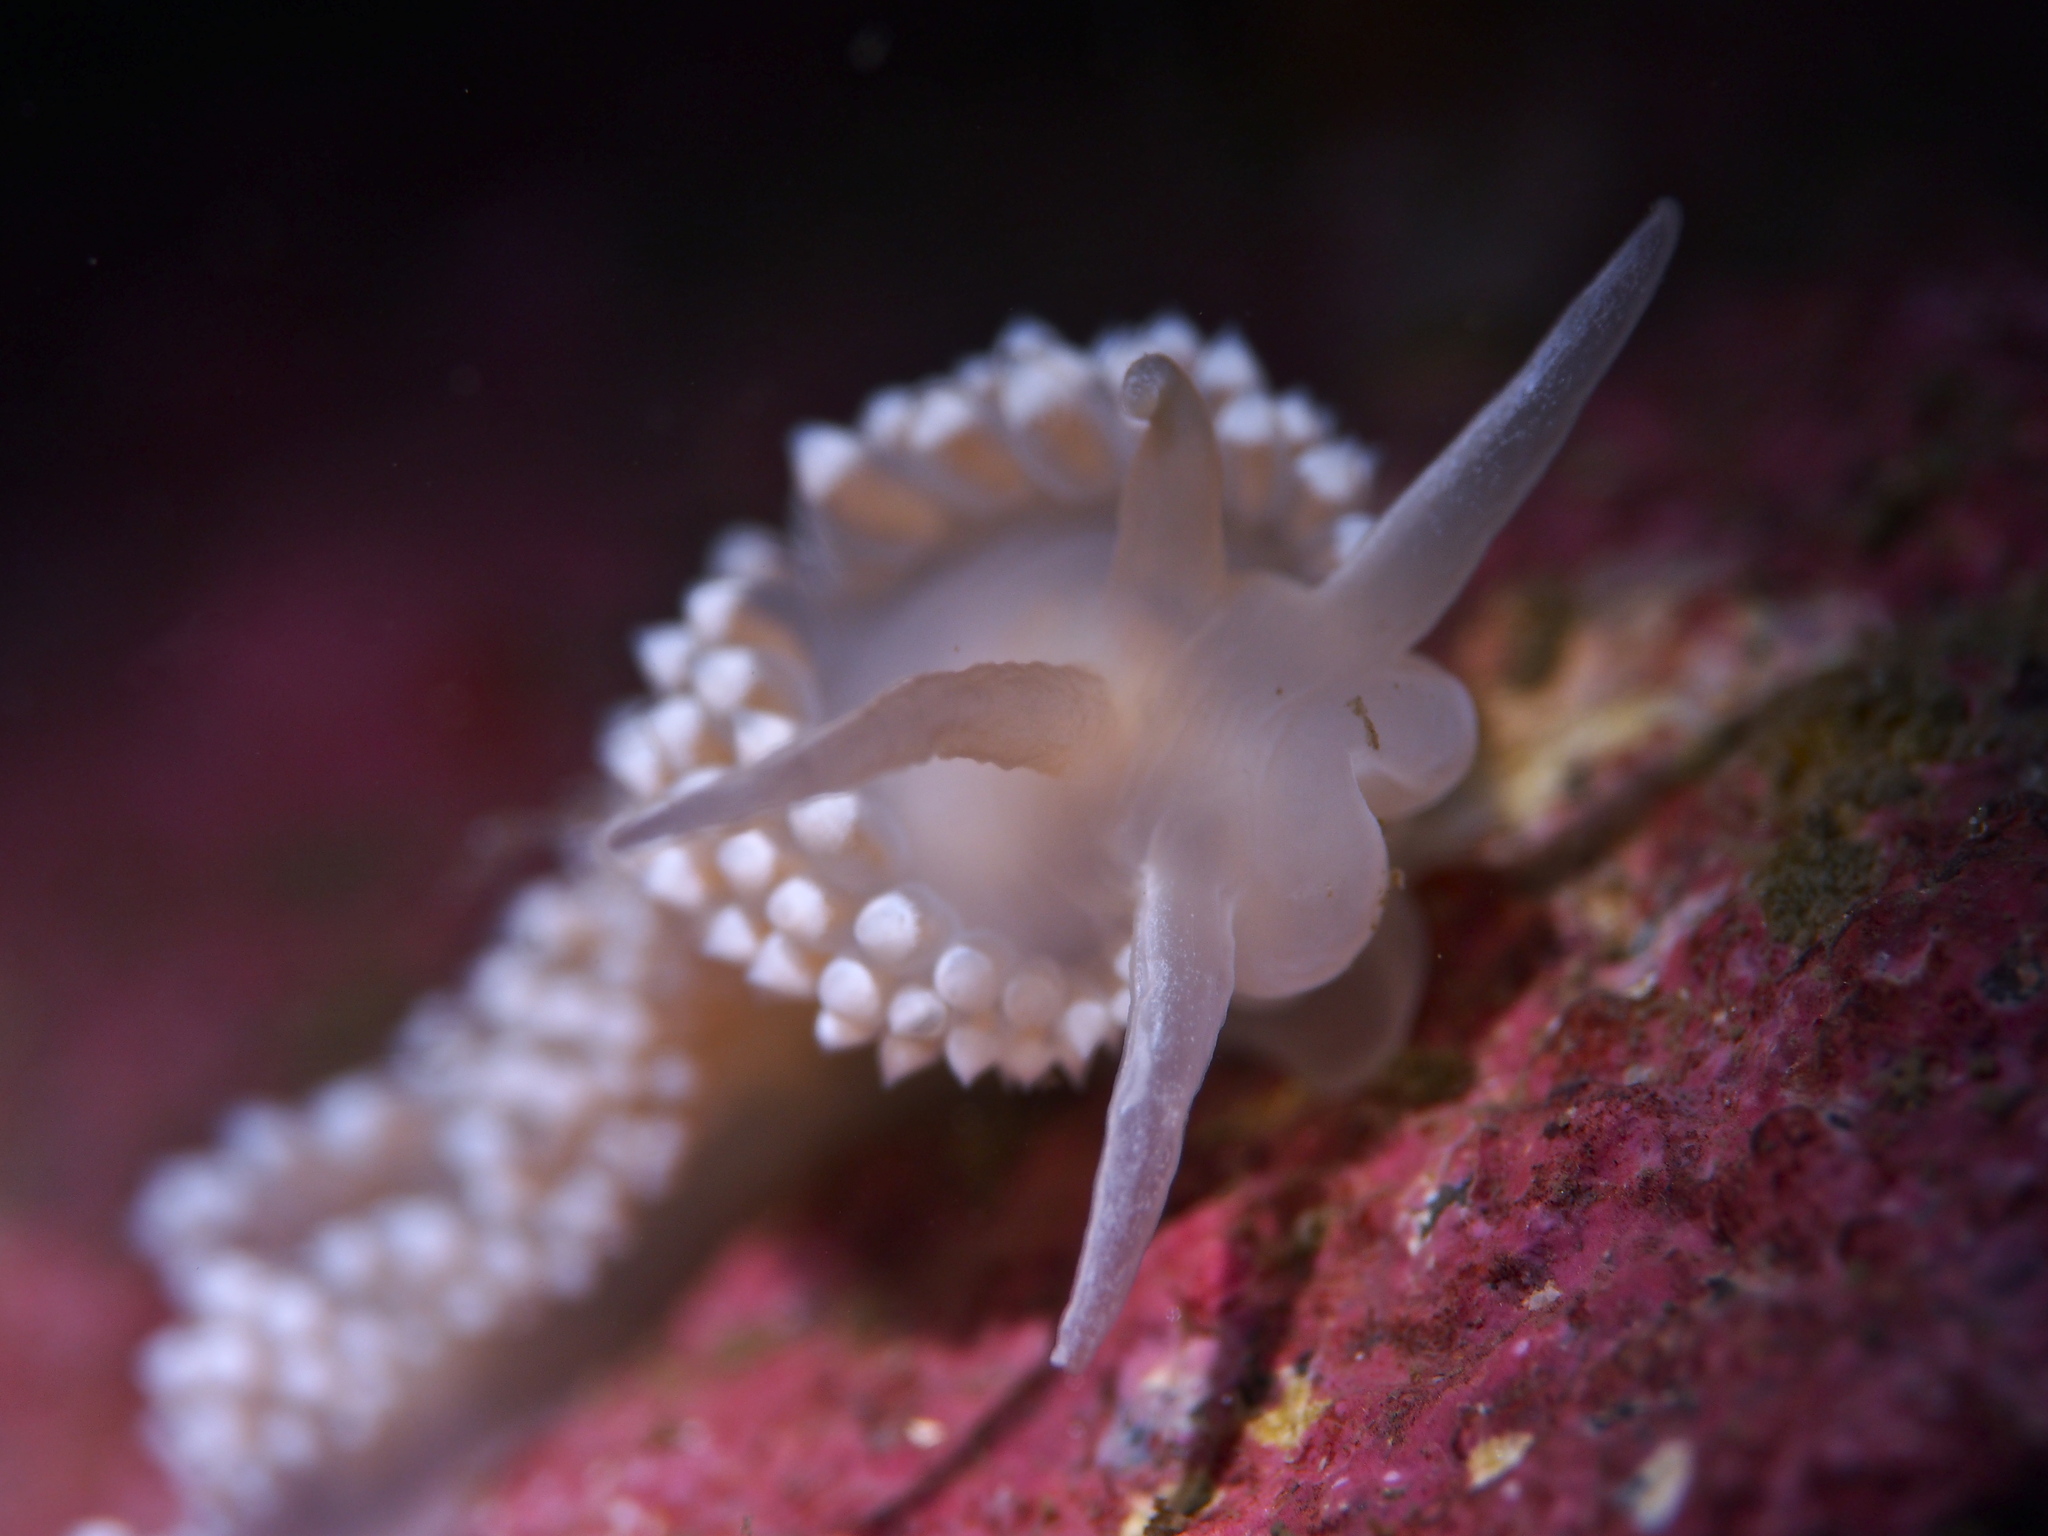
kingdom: Animalia
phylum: Mollusca
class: Gastropoda
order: Nudibranchia
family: Coryphellidae
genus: Coryphella
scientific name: Coryphella verrucosa
